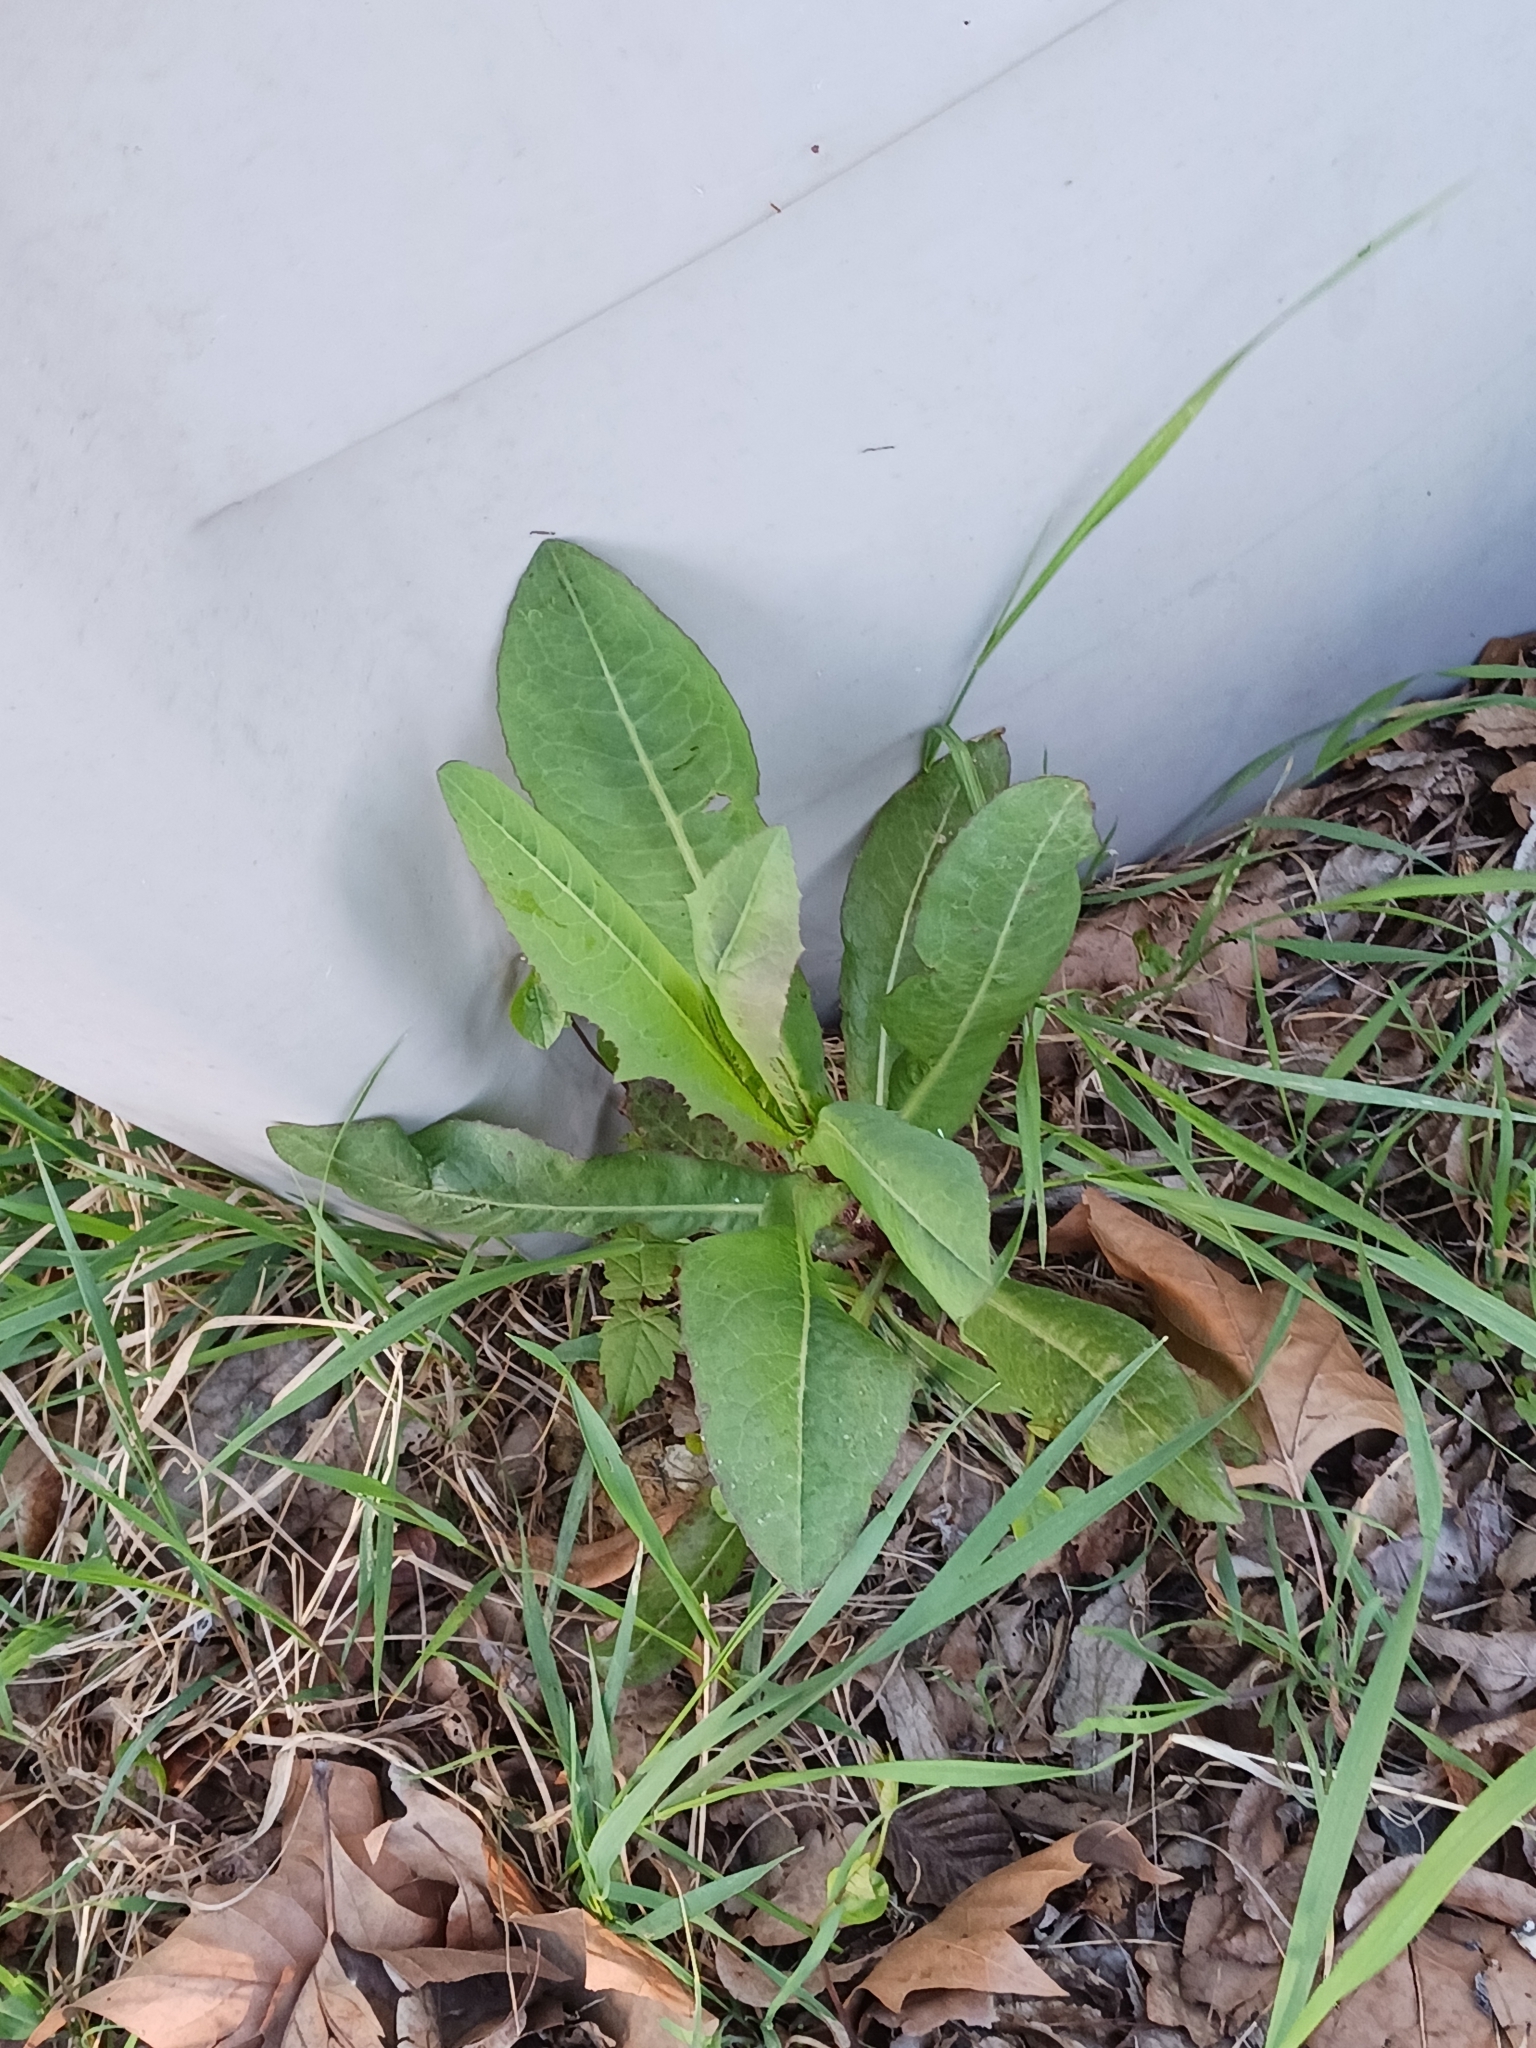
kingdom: Plantae
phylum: Tracheophyta
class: Magnoliopsida
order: Asterales
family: Asteraceae
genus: Lactuca
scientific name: Lactuca serriola
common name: Prickly lettuce
